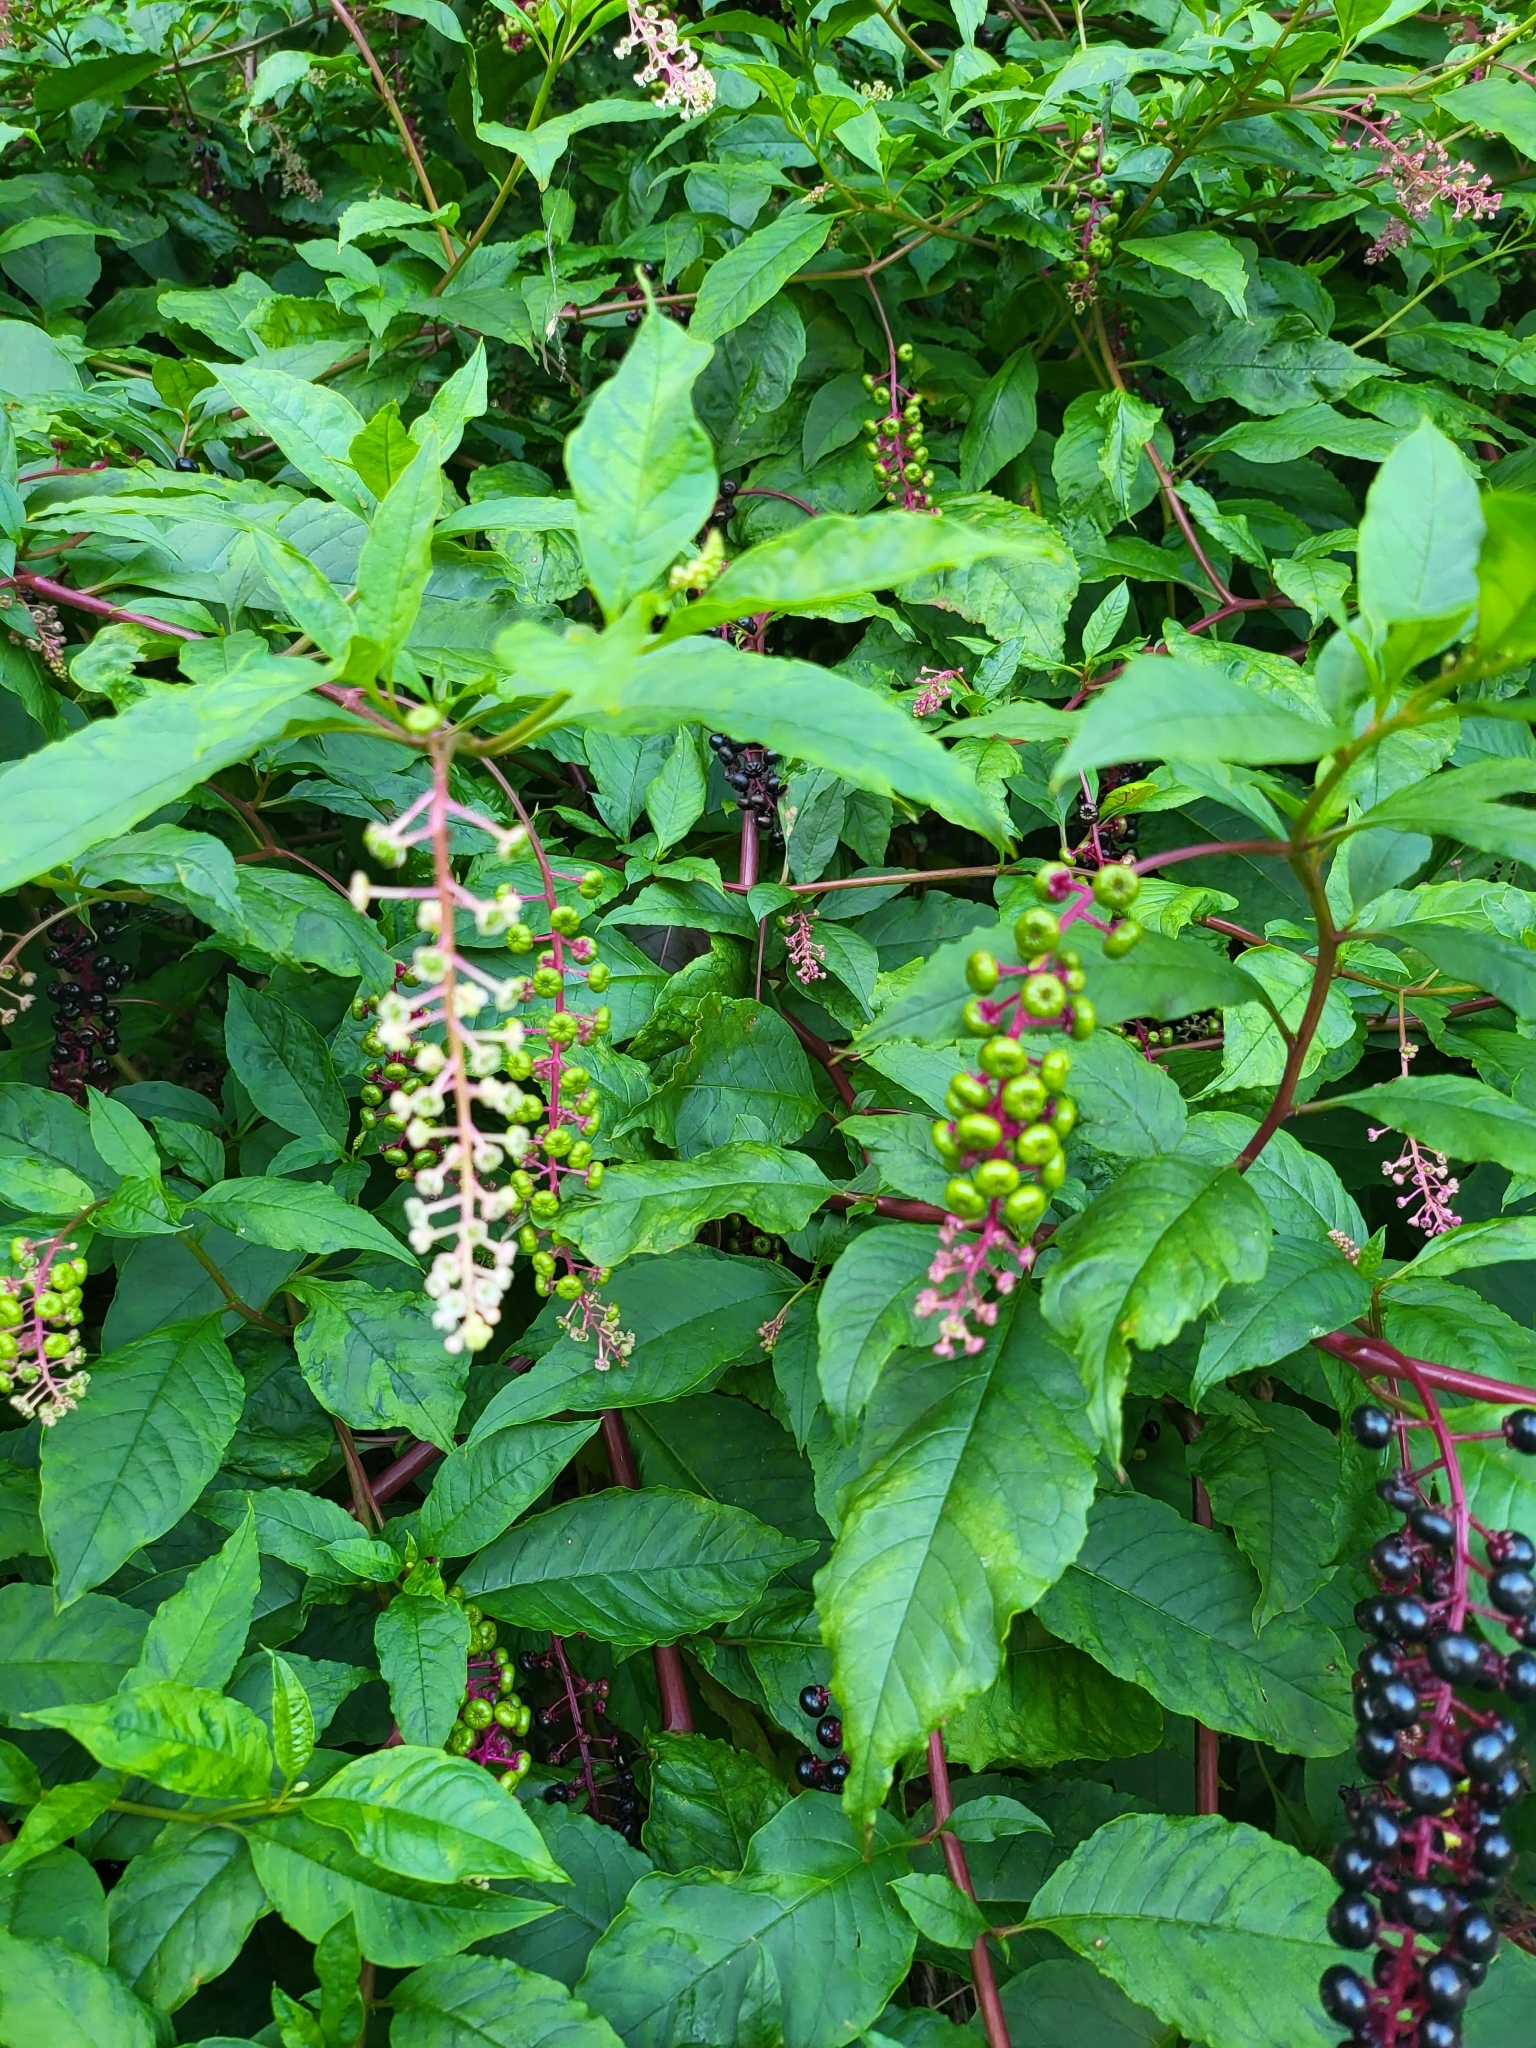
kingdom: Plantae
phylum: Tracheophyta
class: Magnoliopsida
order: Caryophyllales
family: Phytolaccaceae
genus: Phytolacca
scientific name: Phytolacca americana
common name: American pokeweed
